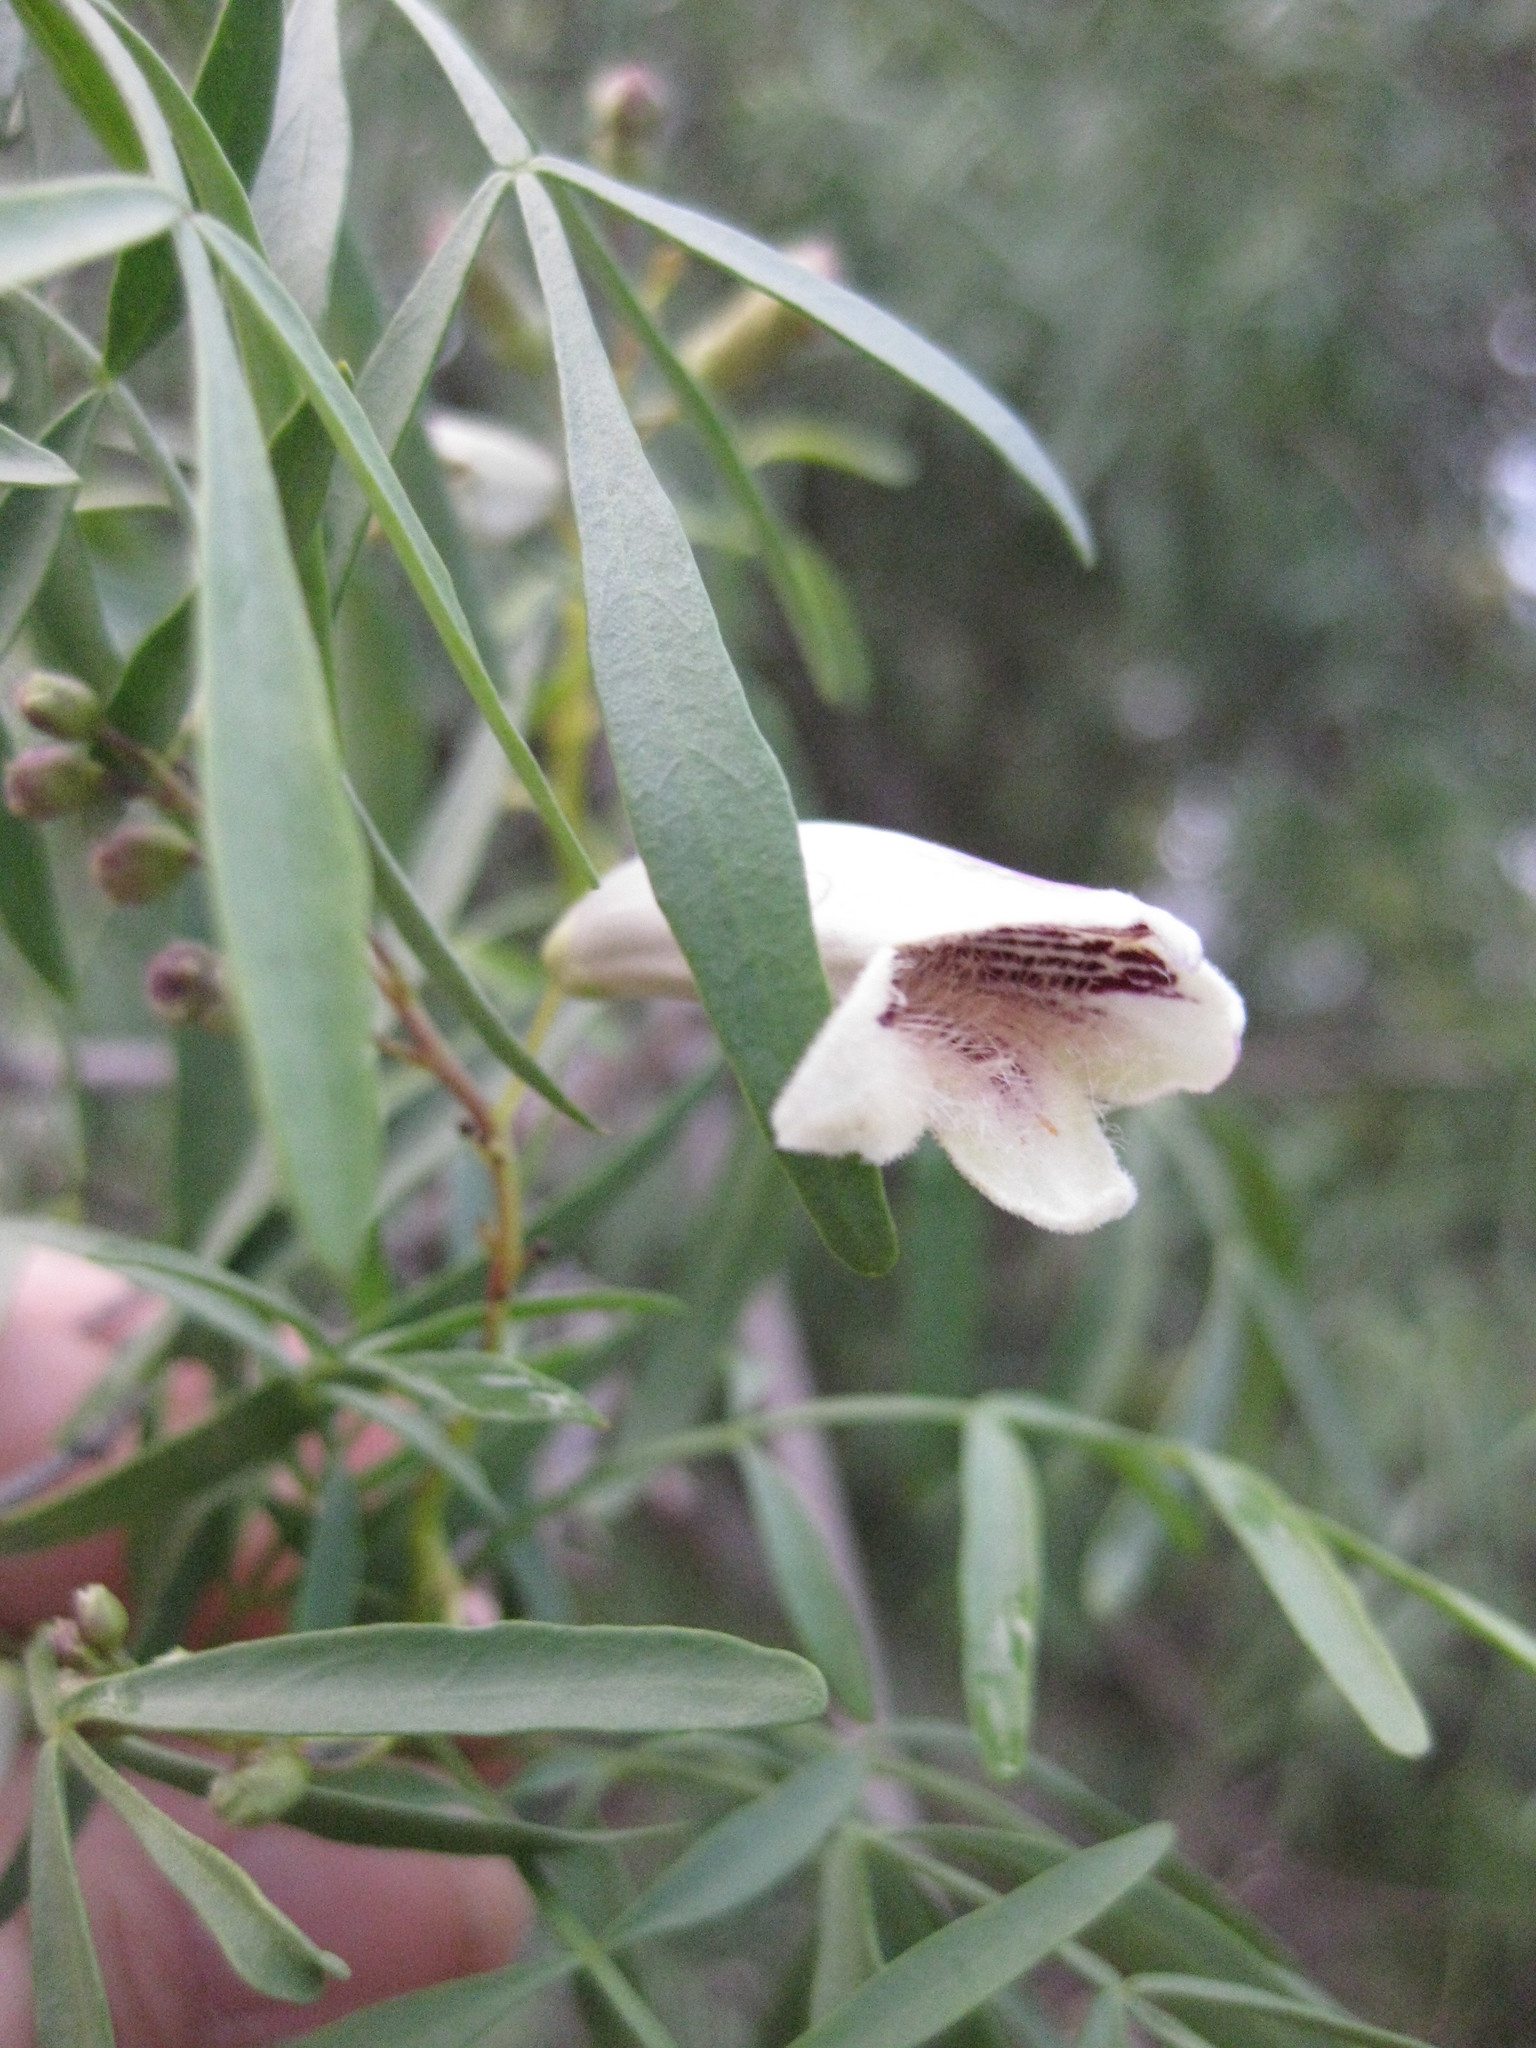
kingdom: Plantae
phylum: Tracheophyta
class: Magnoliopsida
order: Lamiales
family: Bignoniaceae
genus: Pandorea
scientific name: Pandorea pandorana
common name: Wonga-wonga-vine
